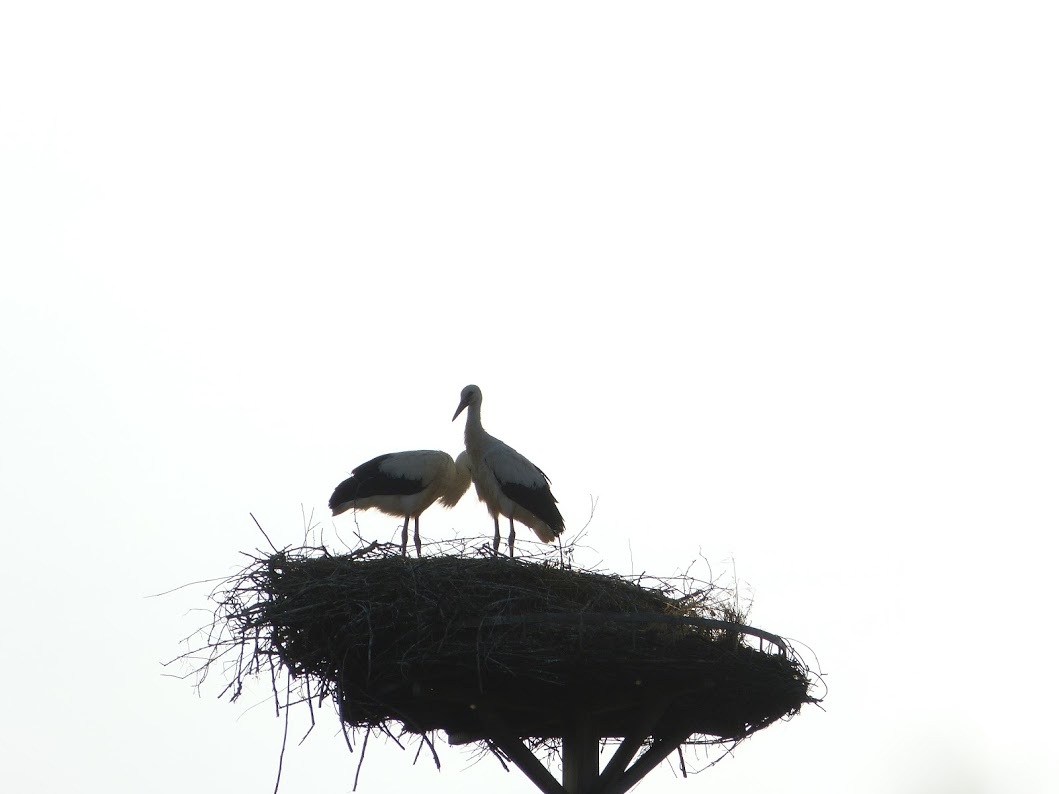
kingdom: Animalia
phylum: Chordata
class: Aves
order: Ciconiiformes
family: Ciconiidae
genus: Ciconia
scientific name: Ciconia ciconia
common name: White stork
